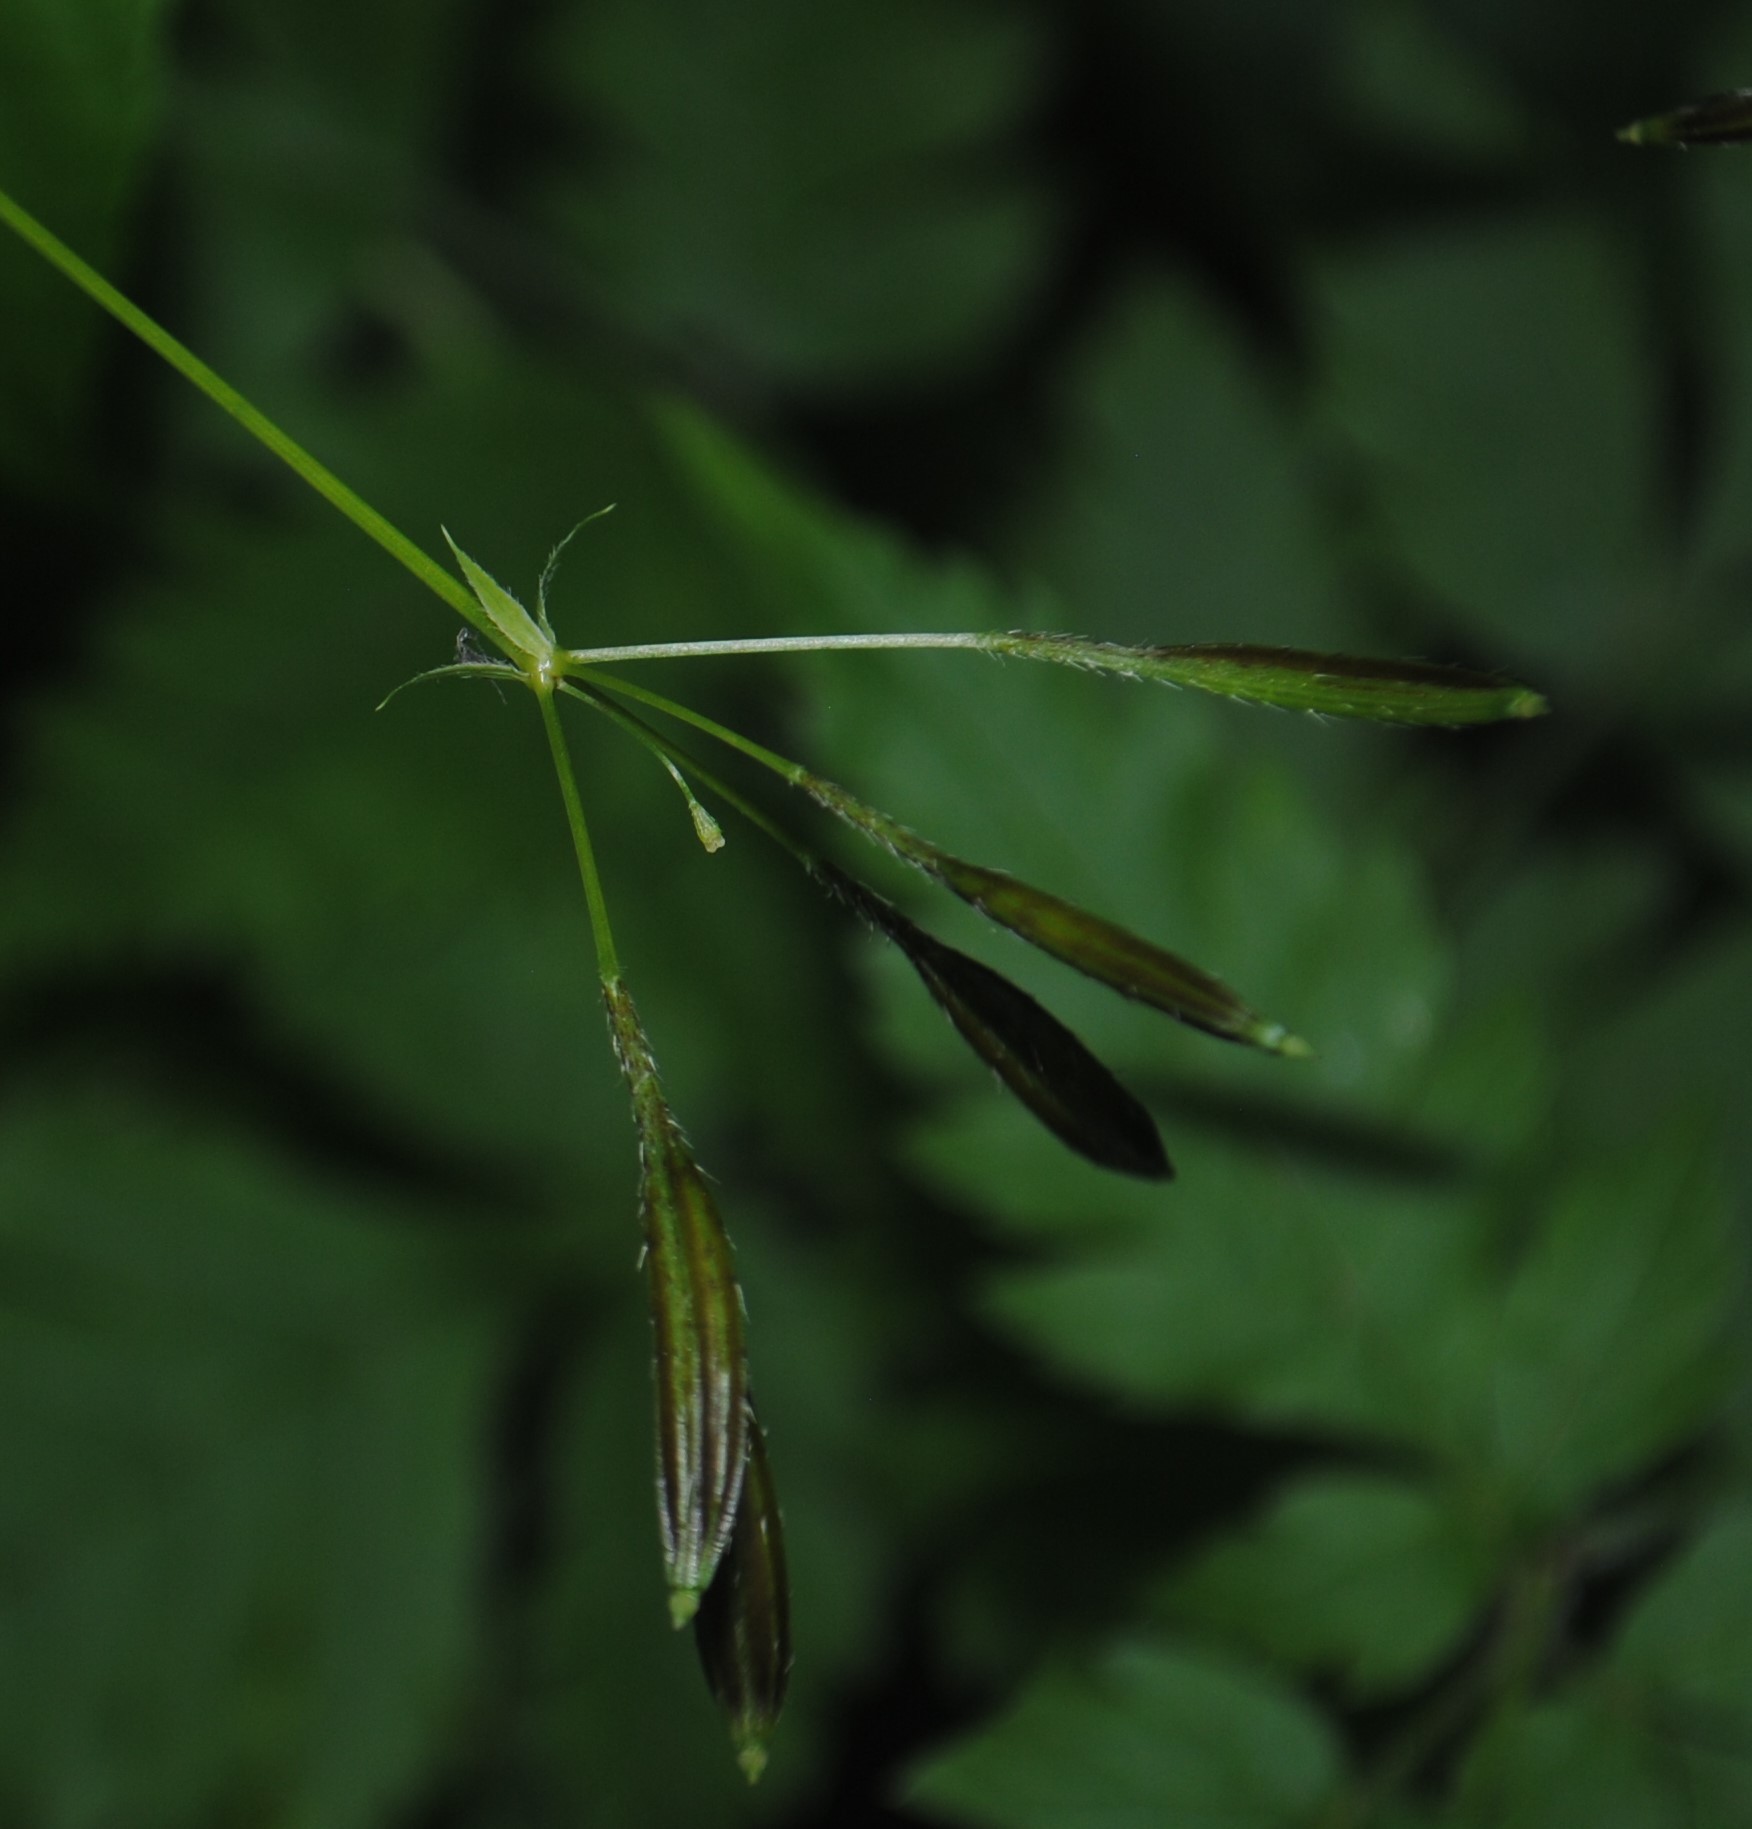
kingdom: Plantae
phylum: Tracheophyta
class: Magnoliopsida
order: Apiales
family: Apiaceae
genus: Osmorhiza
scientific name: Osmorhiza longistylis
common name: Smooth sweet cicely
